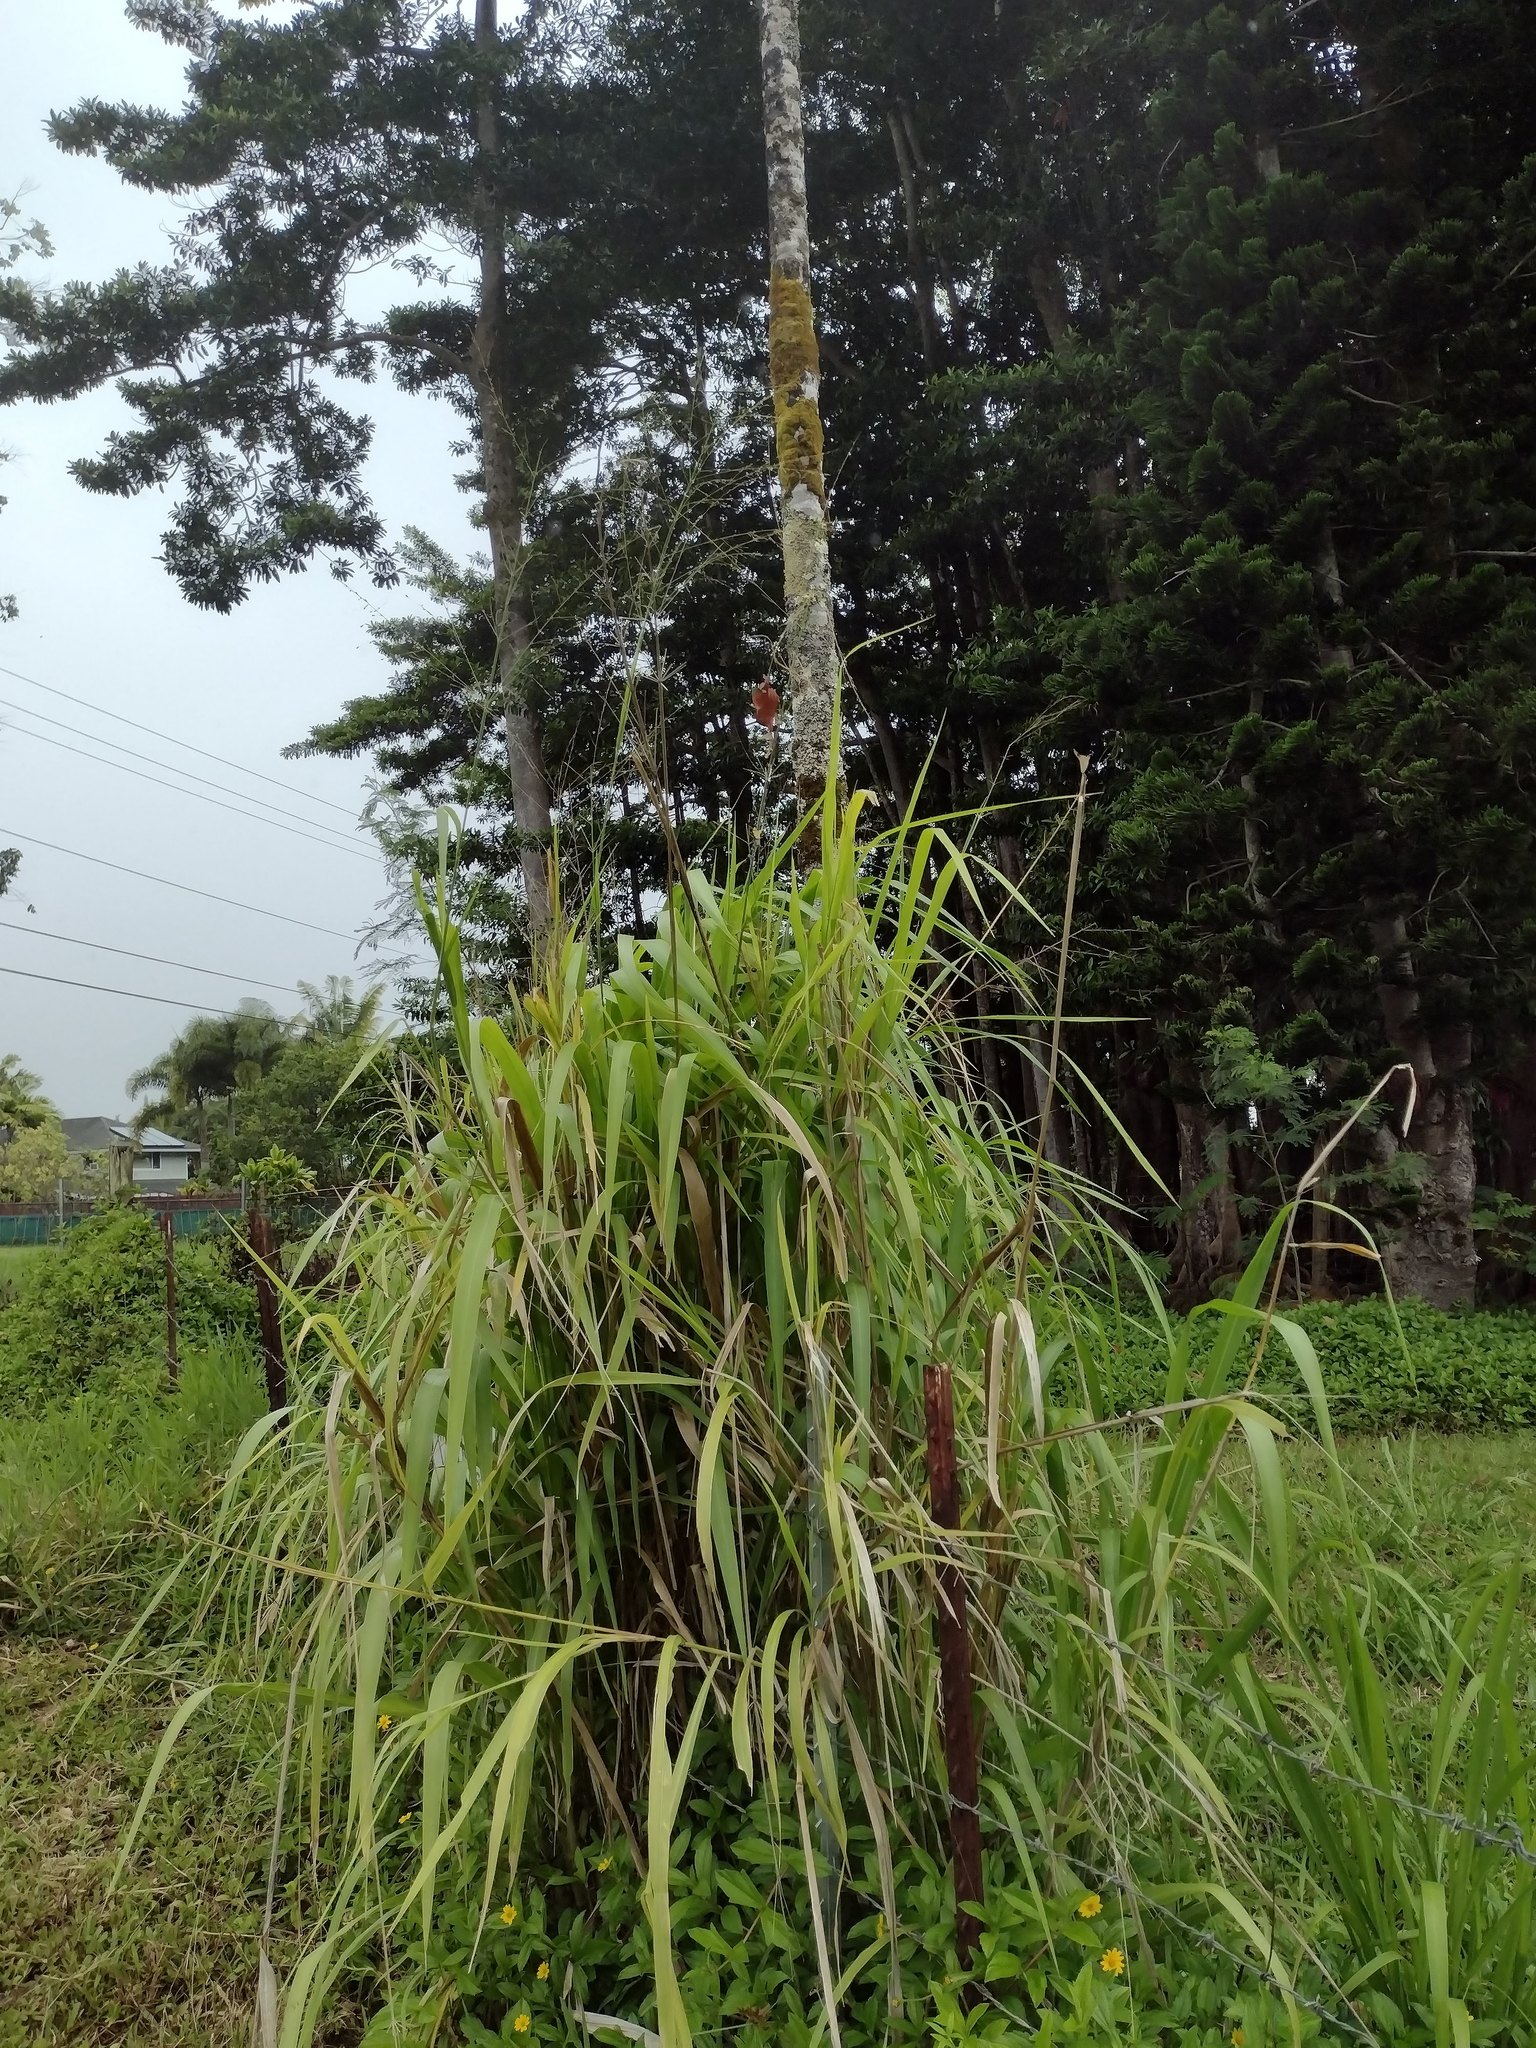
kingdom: Plantae
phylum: Tracheophyta
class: Liliopsida
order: Poales
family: Poaceae
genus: Megathyrsus
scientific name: Megathyrsus maximus
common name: Guineagrass
